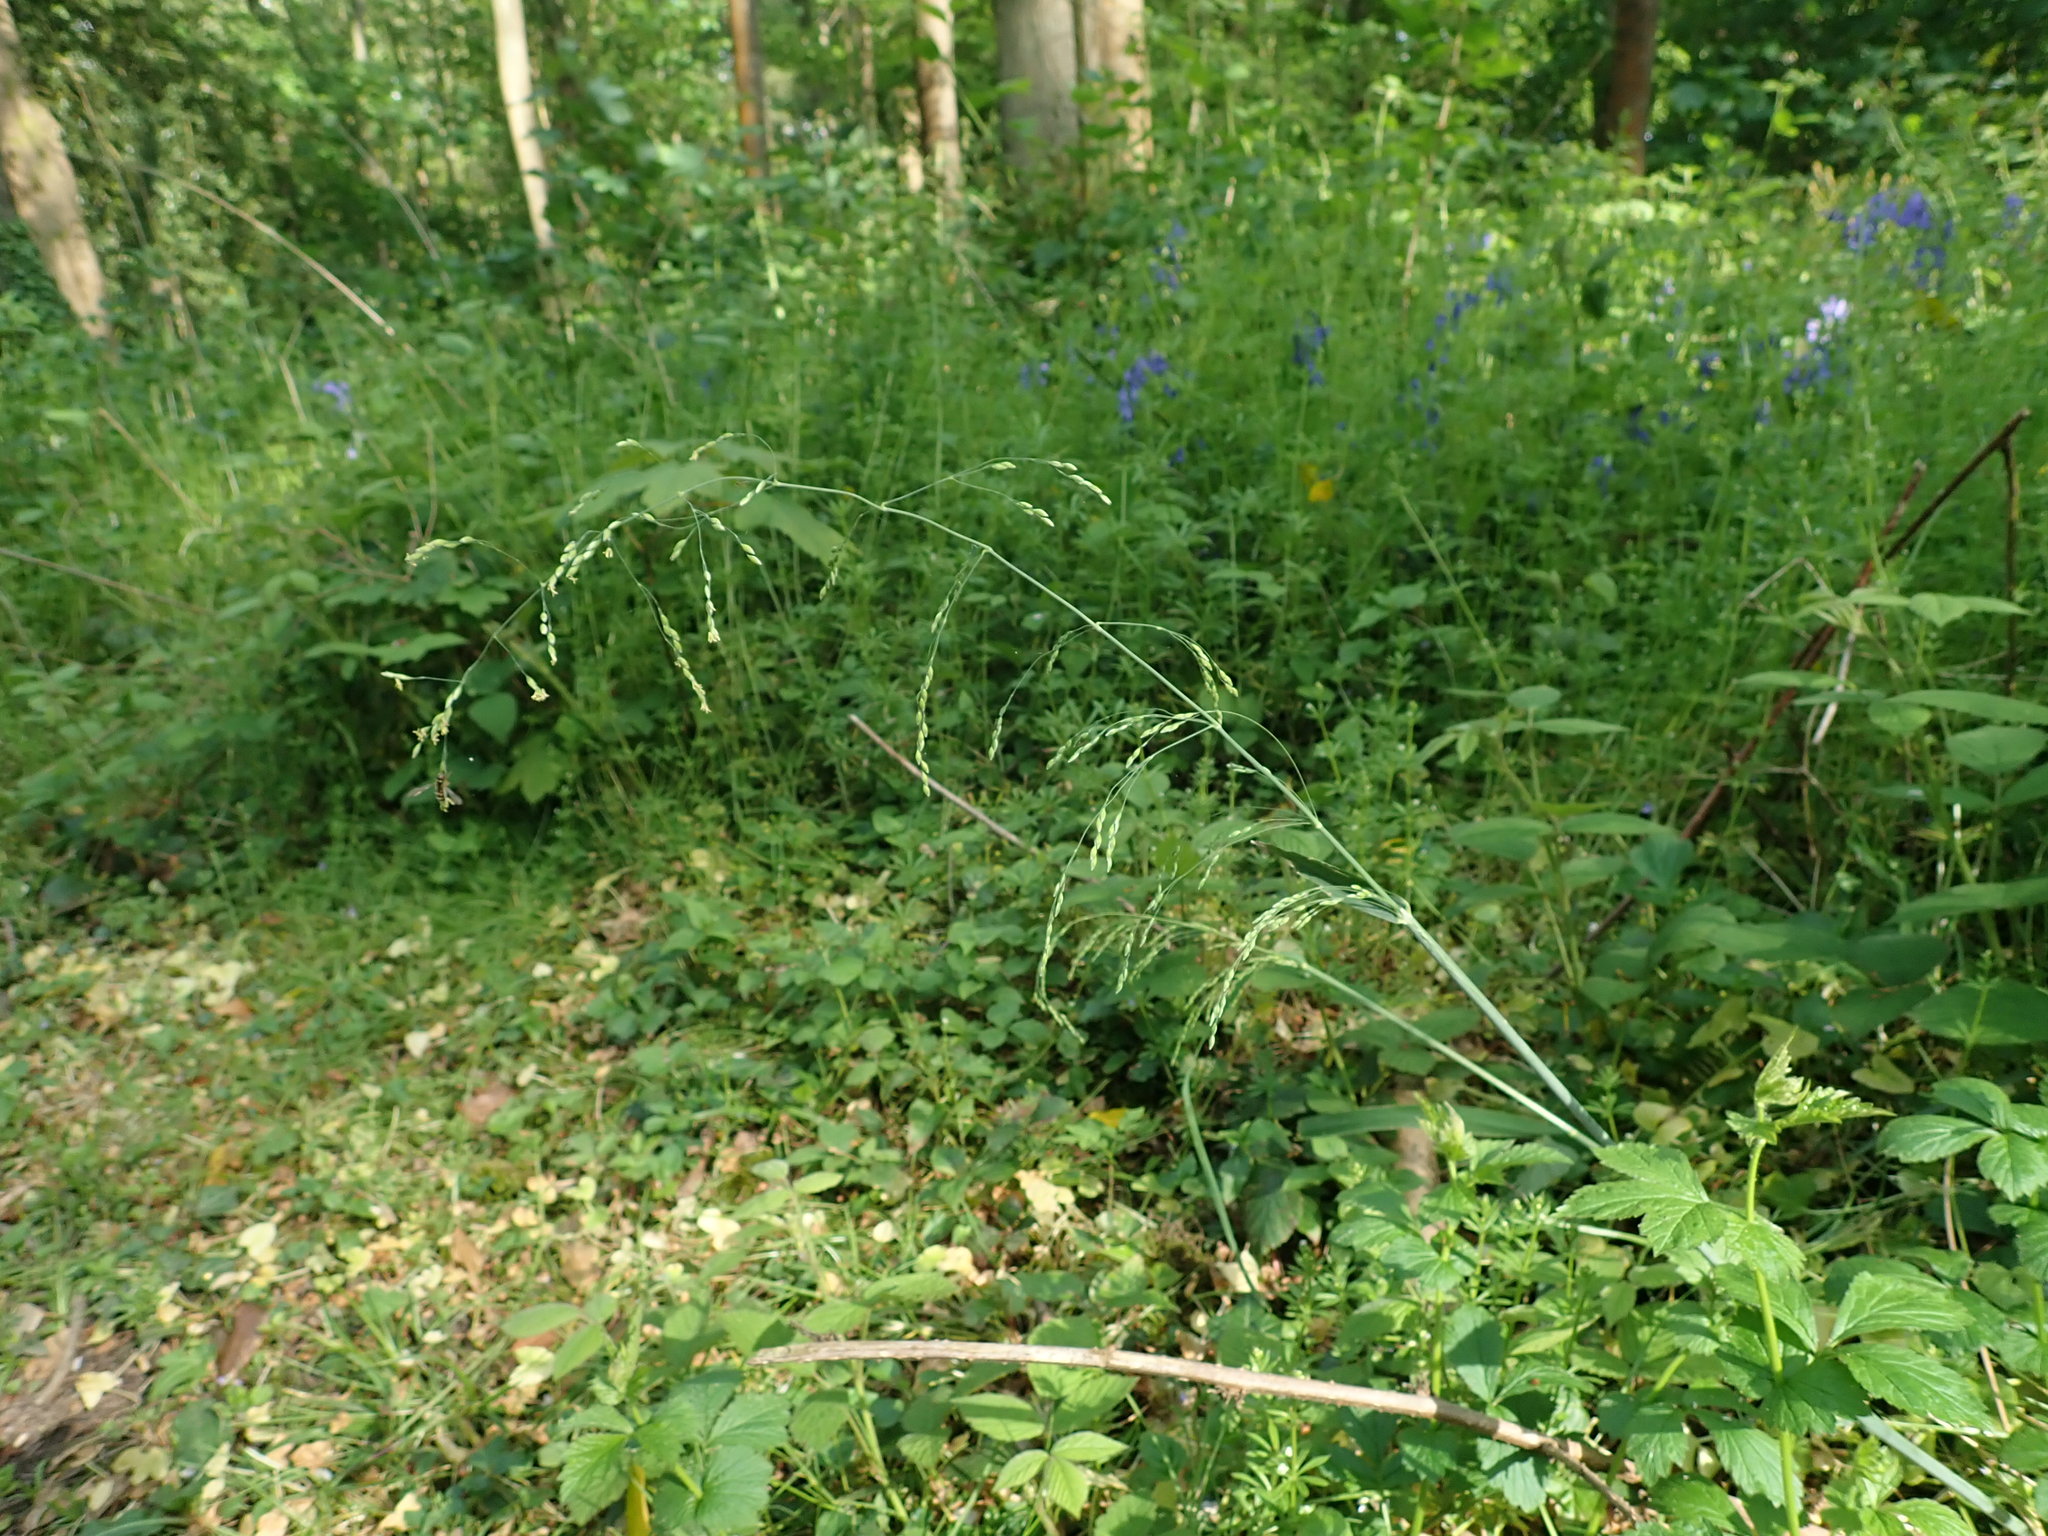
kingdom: Plantae
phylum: Tracheophyta
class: Liliopsida
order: Poales
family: Poaceae
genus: Milium
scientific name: Milium effusum
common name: Wood millet
